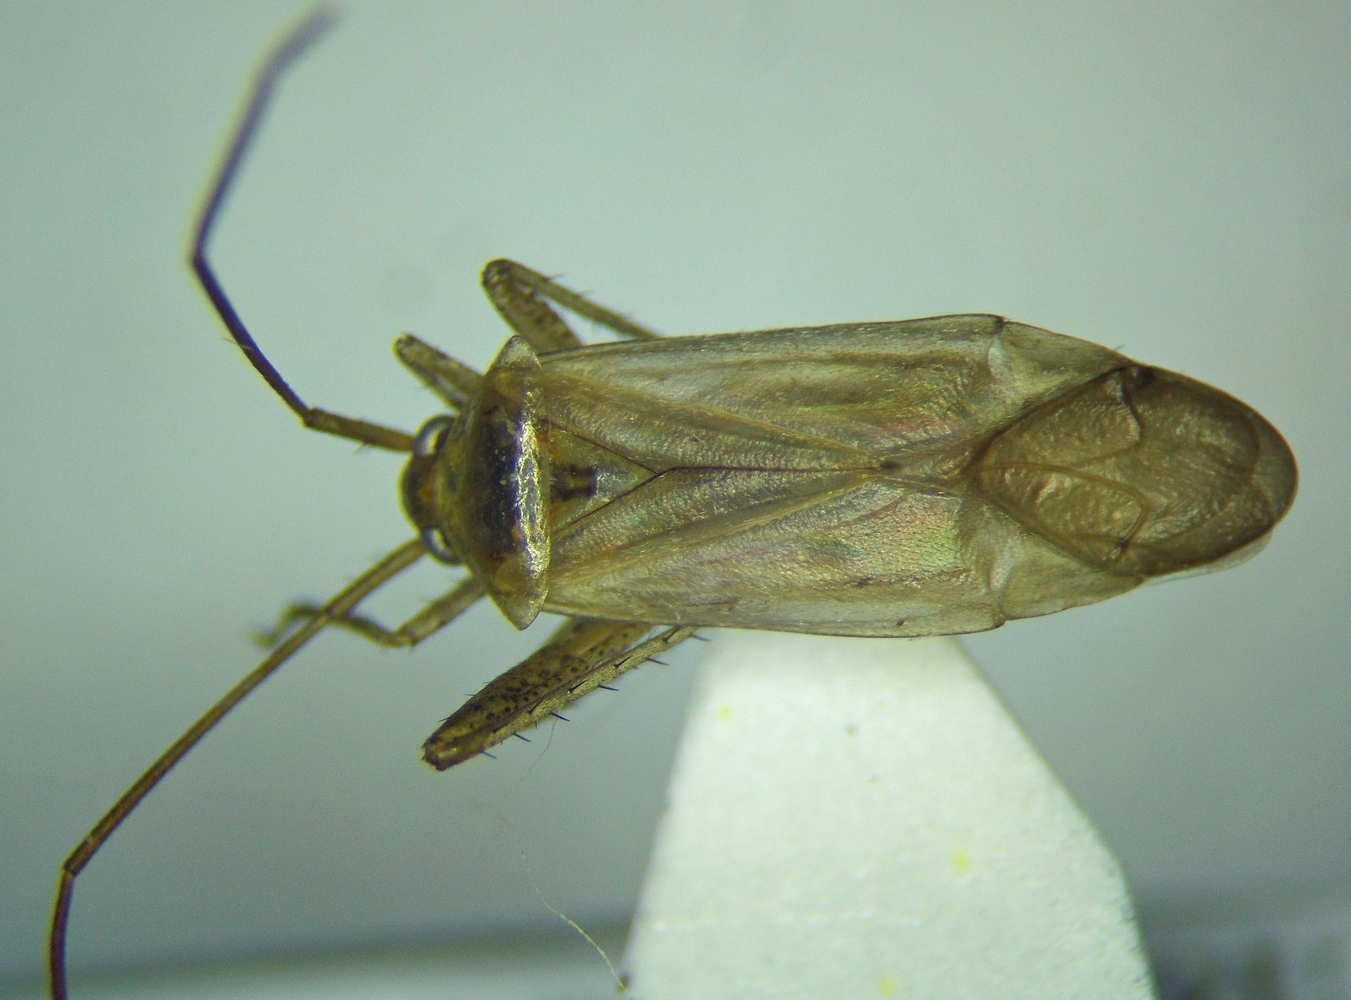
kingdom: Animalia
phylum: Arthropoda
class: Insecta
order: Hemiptera
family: Miridae
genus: Adelphocoris
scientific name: Adelphocoris lineolatus
